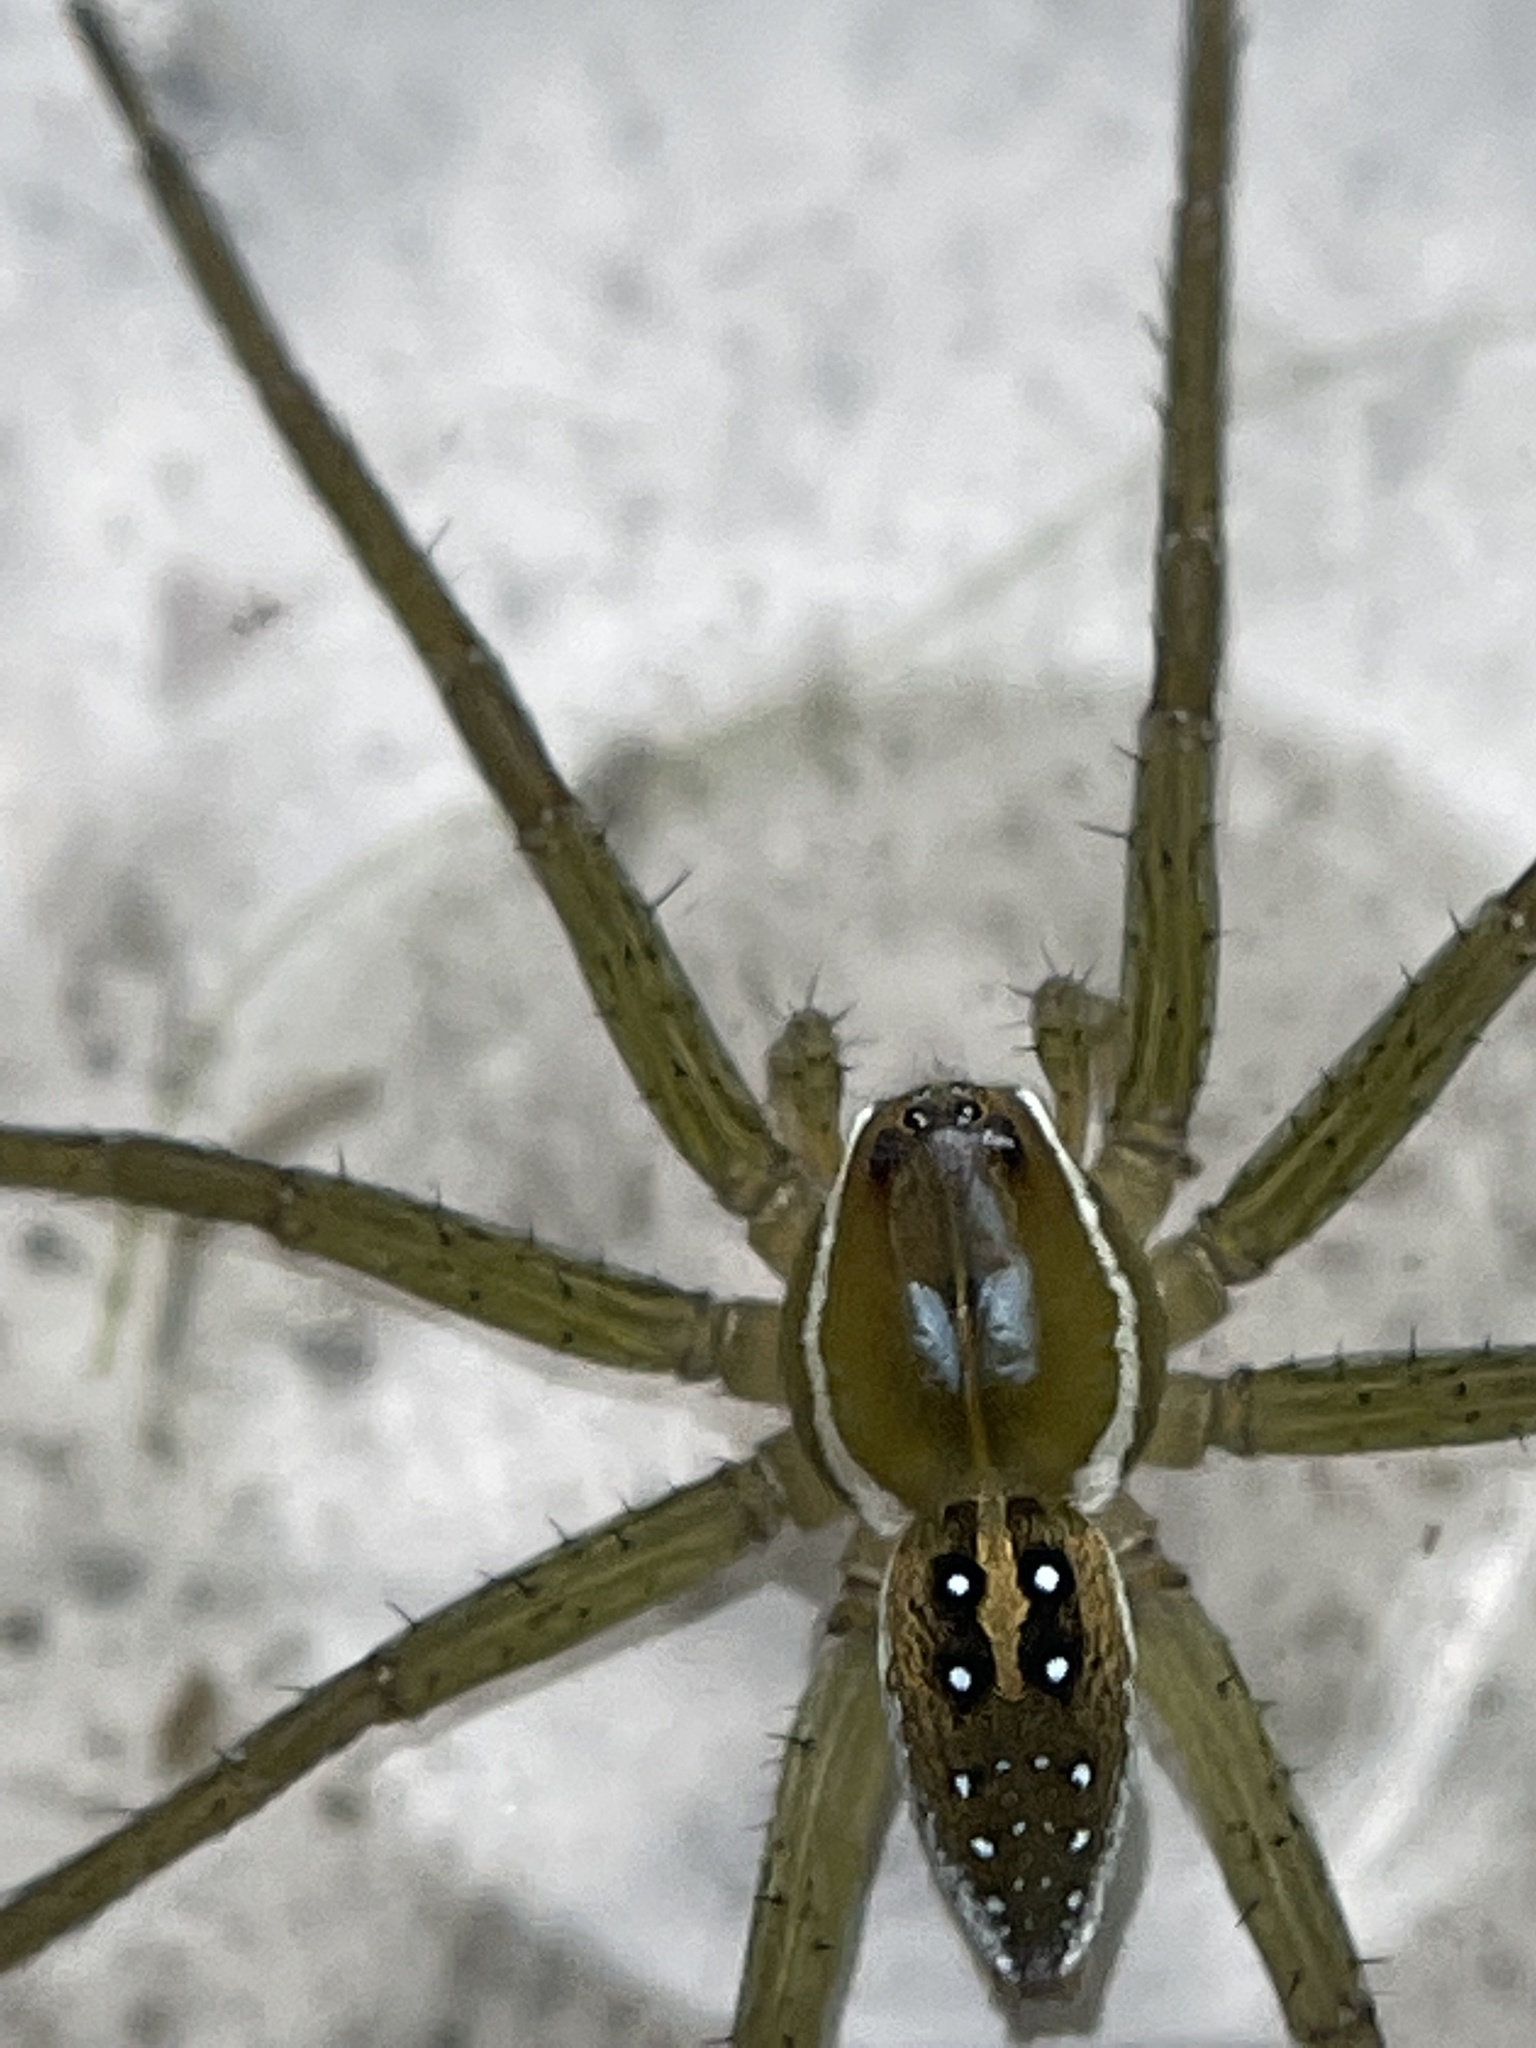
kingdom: Animalia
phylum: Arthropoda
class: Arachnida
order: Araneae
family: Pisauridae
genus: Dolomedes
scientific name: Dolomedes triton
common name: Six-spotted fishing spider
